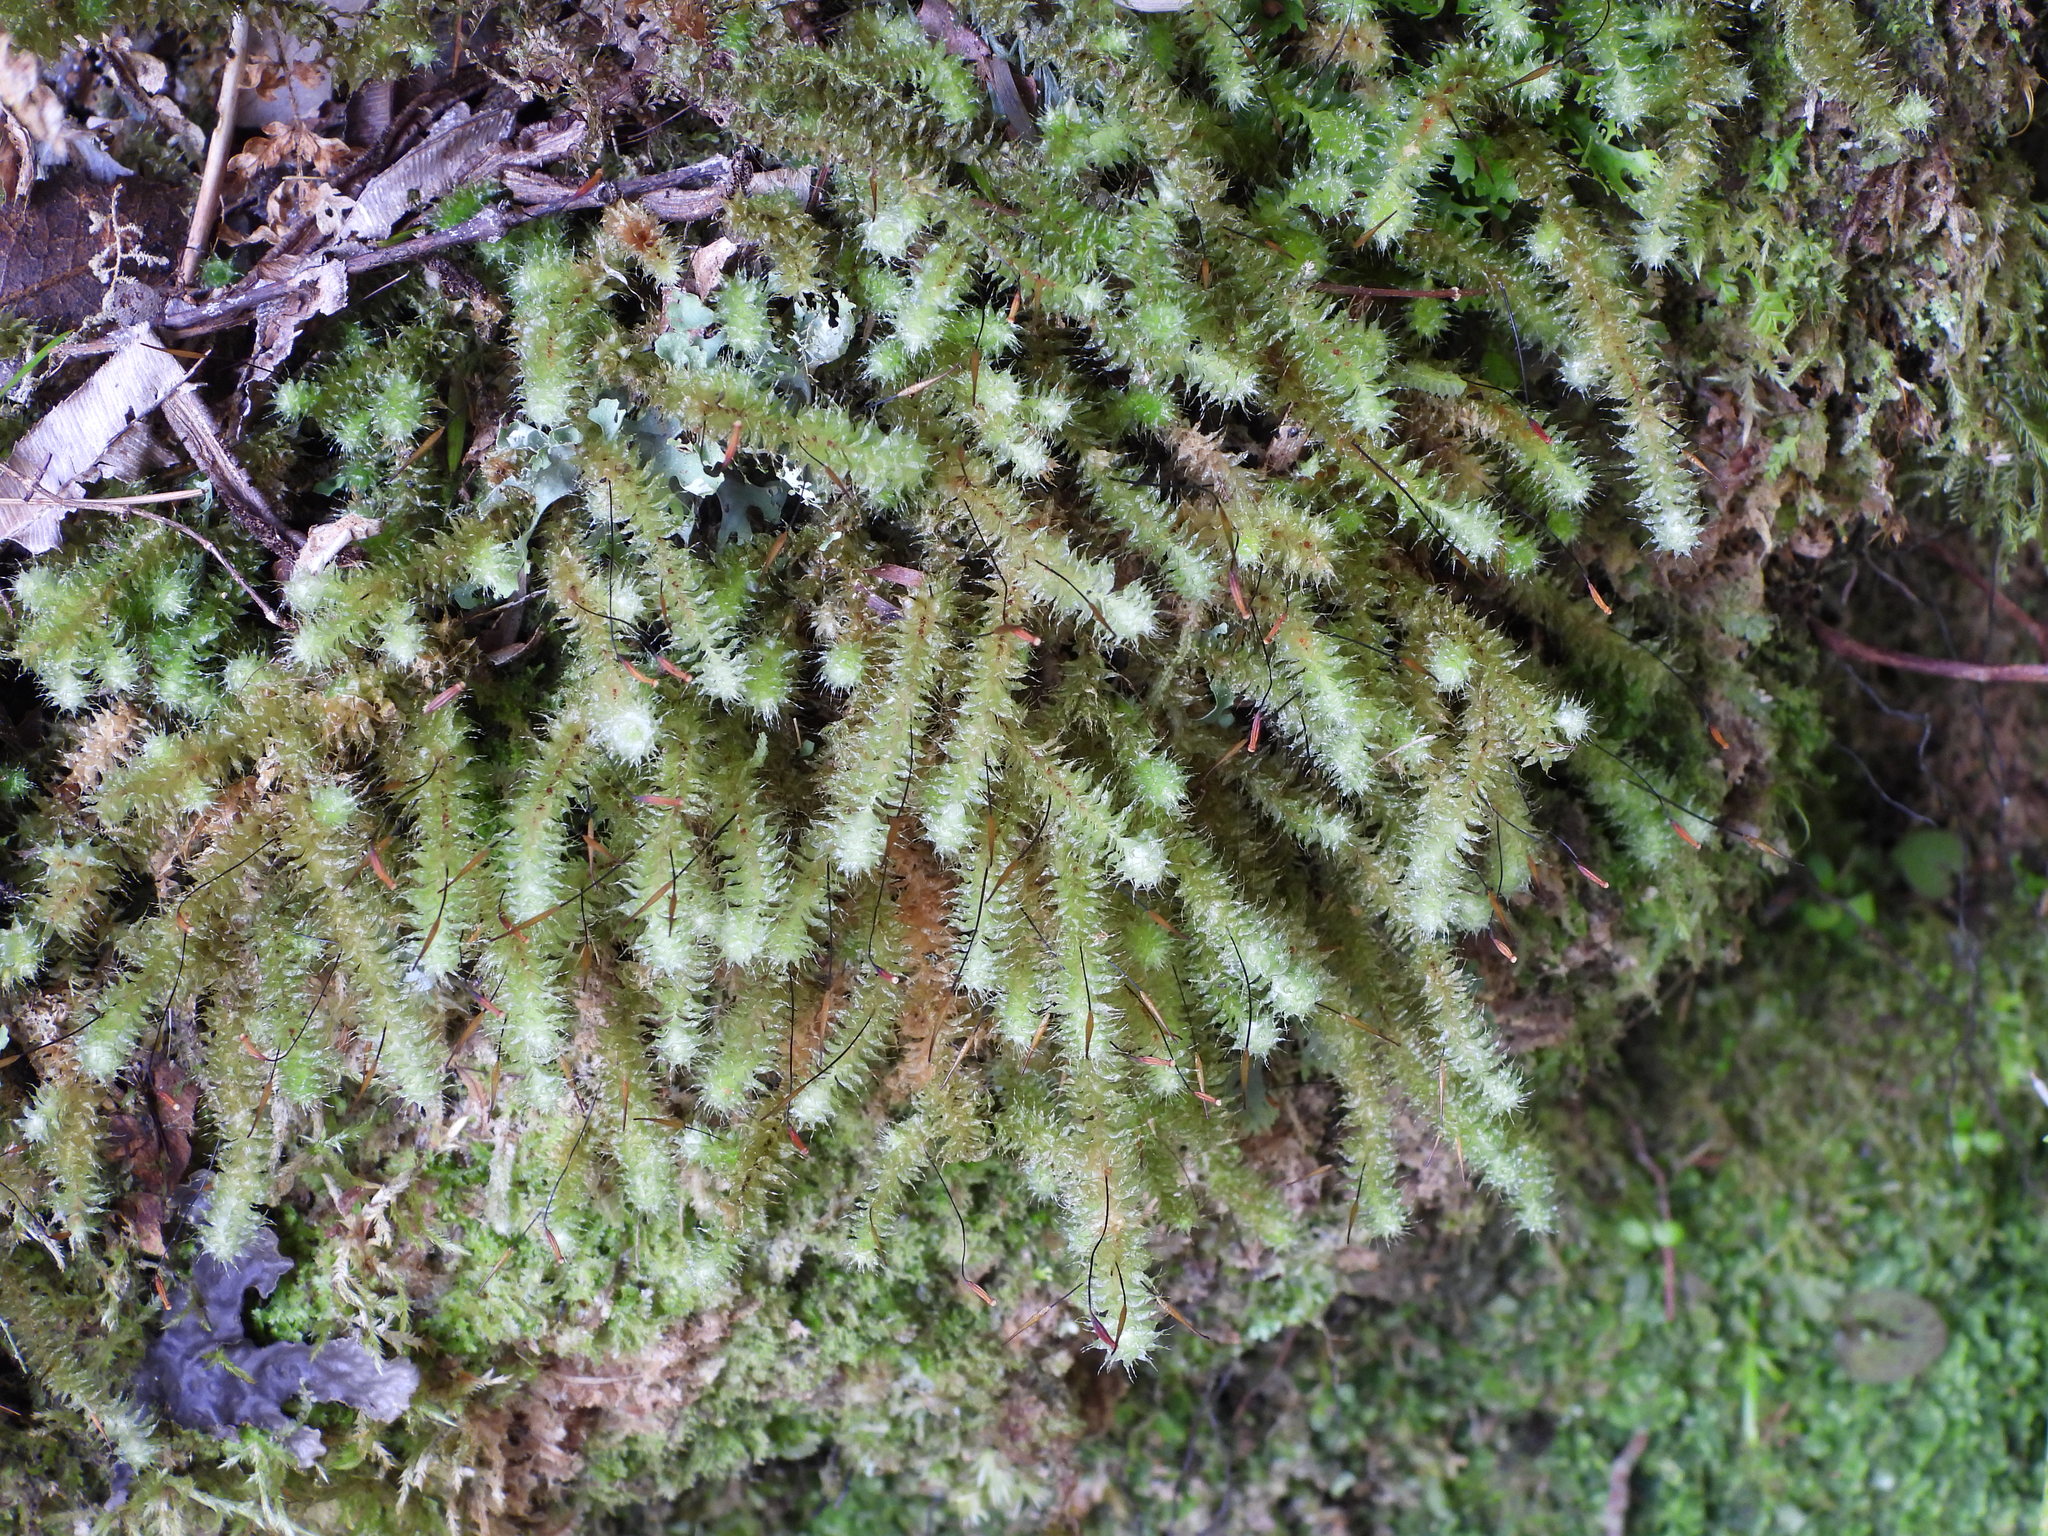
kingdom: Plantae
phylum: Bryophyta
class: Bryopsida
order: Ptychomniales
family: Ptychomniaceae
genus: Ptychomnion
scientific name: Ptychomnion aciculare
